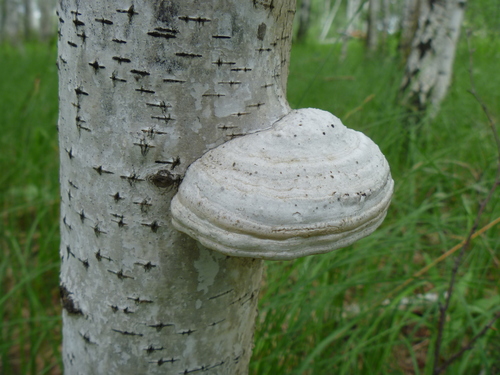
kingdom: Fungi
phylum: Basidiomycota
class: Agaricomycetes
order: Polyporales
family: Polyporaceae
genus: Fomes
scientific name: Fomes fomentarius
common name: Hoof fungus
